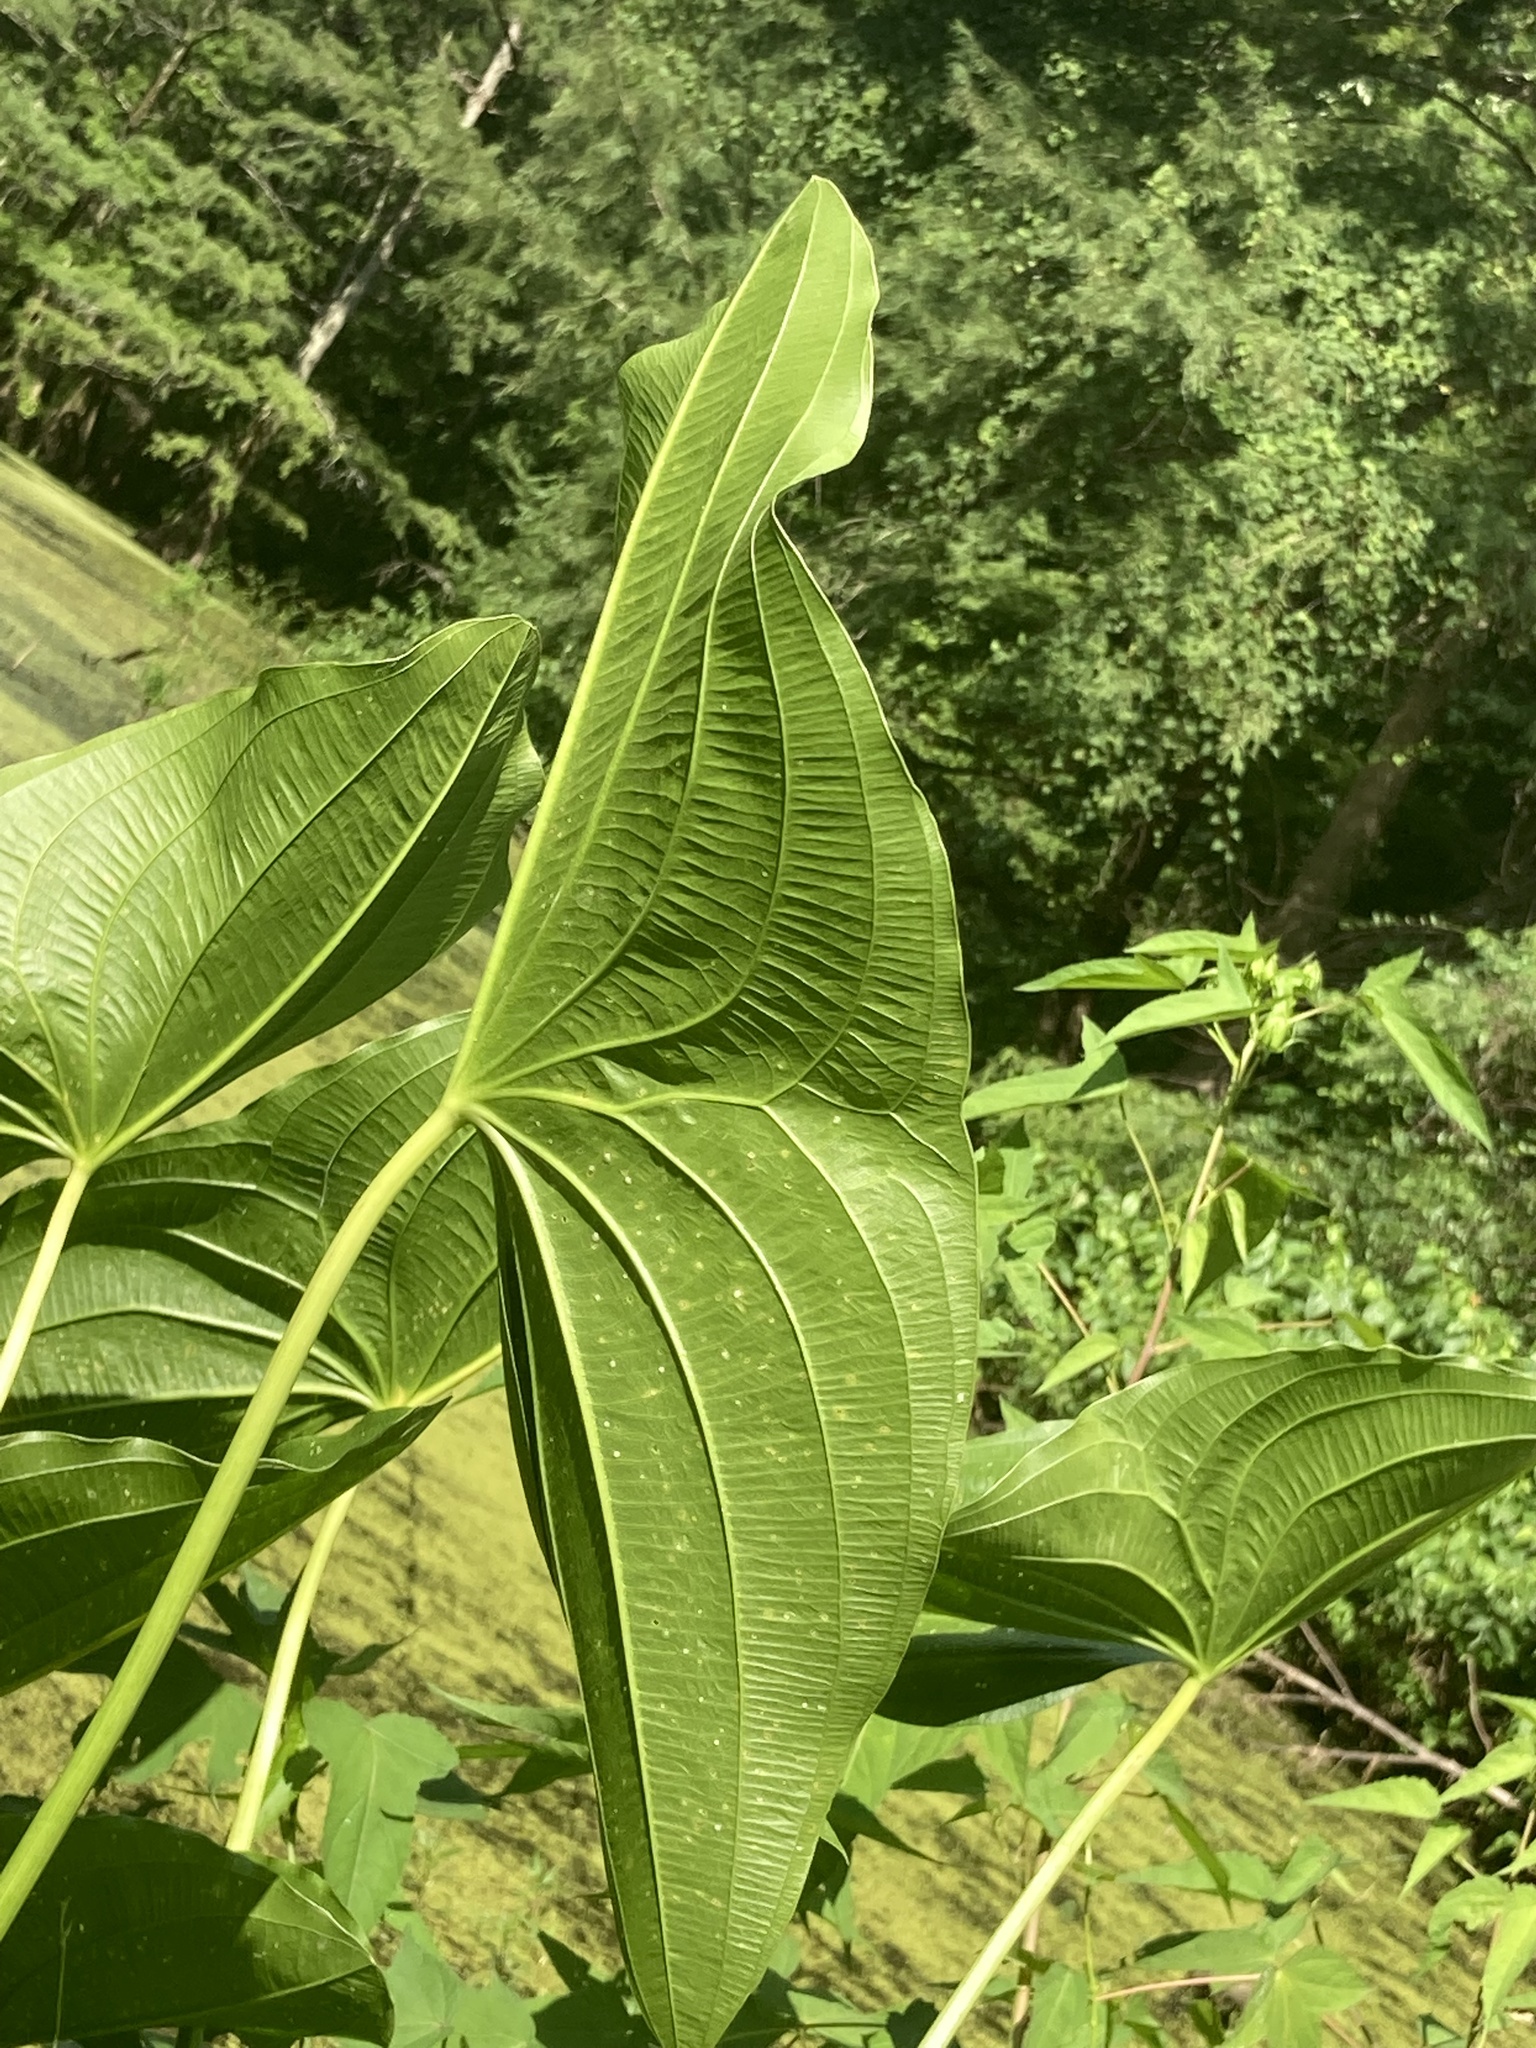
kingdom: Plantae
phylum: Tracheophyta
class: Liliopsida
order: Alismatales
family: Alismataceae
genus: Sagittaria
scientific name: Sagittaria latifolia
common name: Duck-potato
